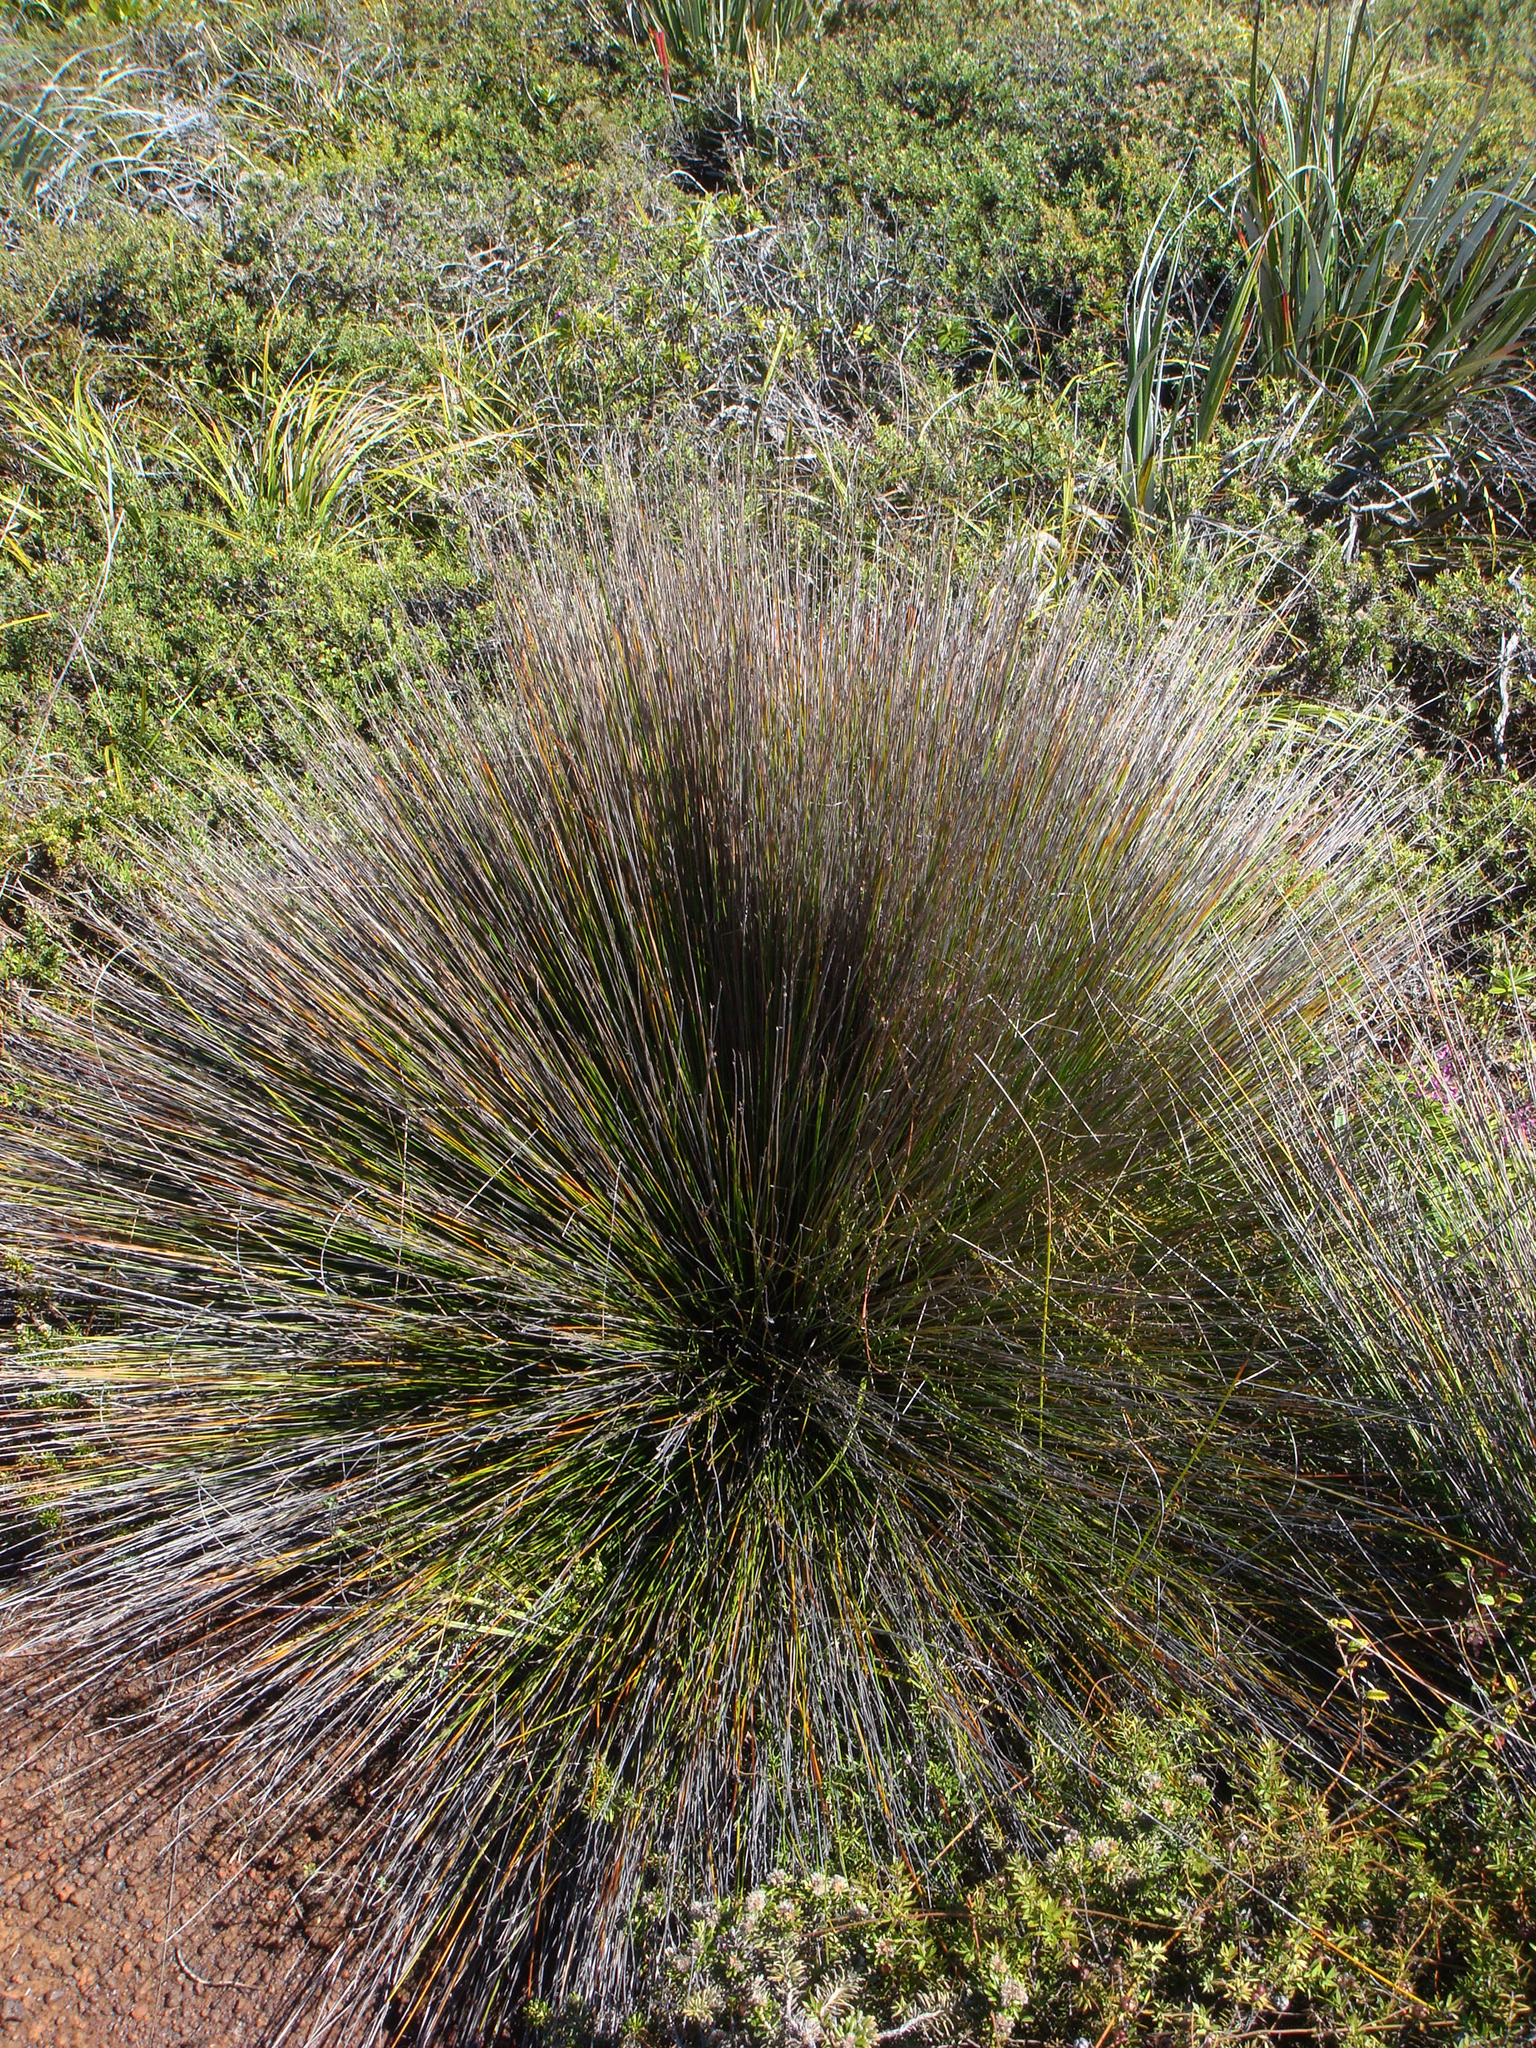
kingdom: Plantae
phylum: Tracheophyta
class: Liliopsida
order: Poales
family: Cyperaceae
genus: Lepidosperma
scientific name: Lepidosperma
